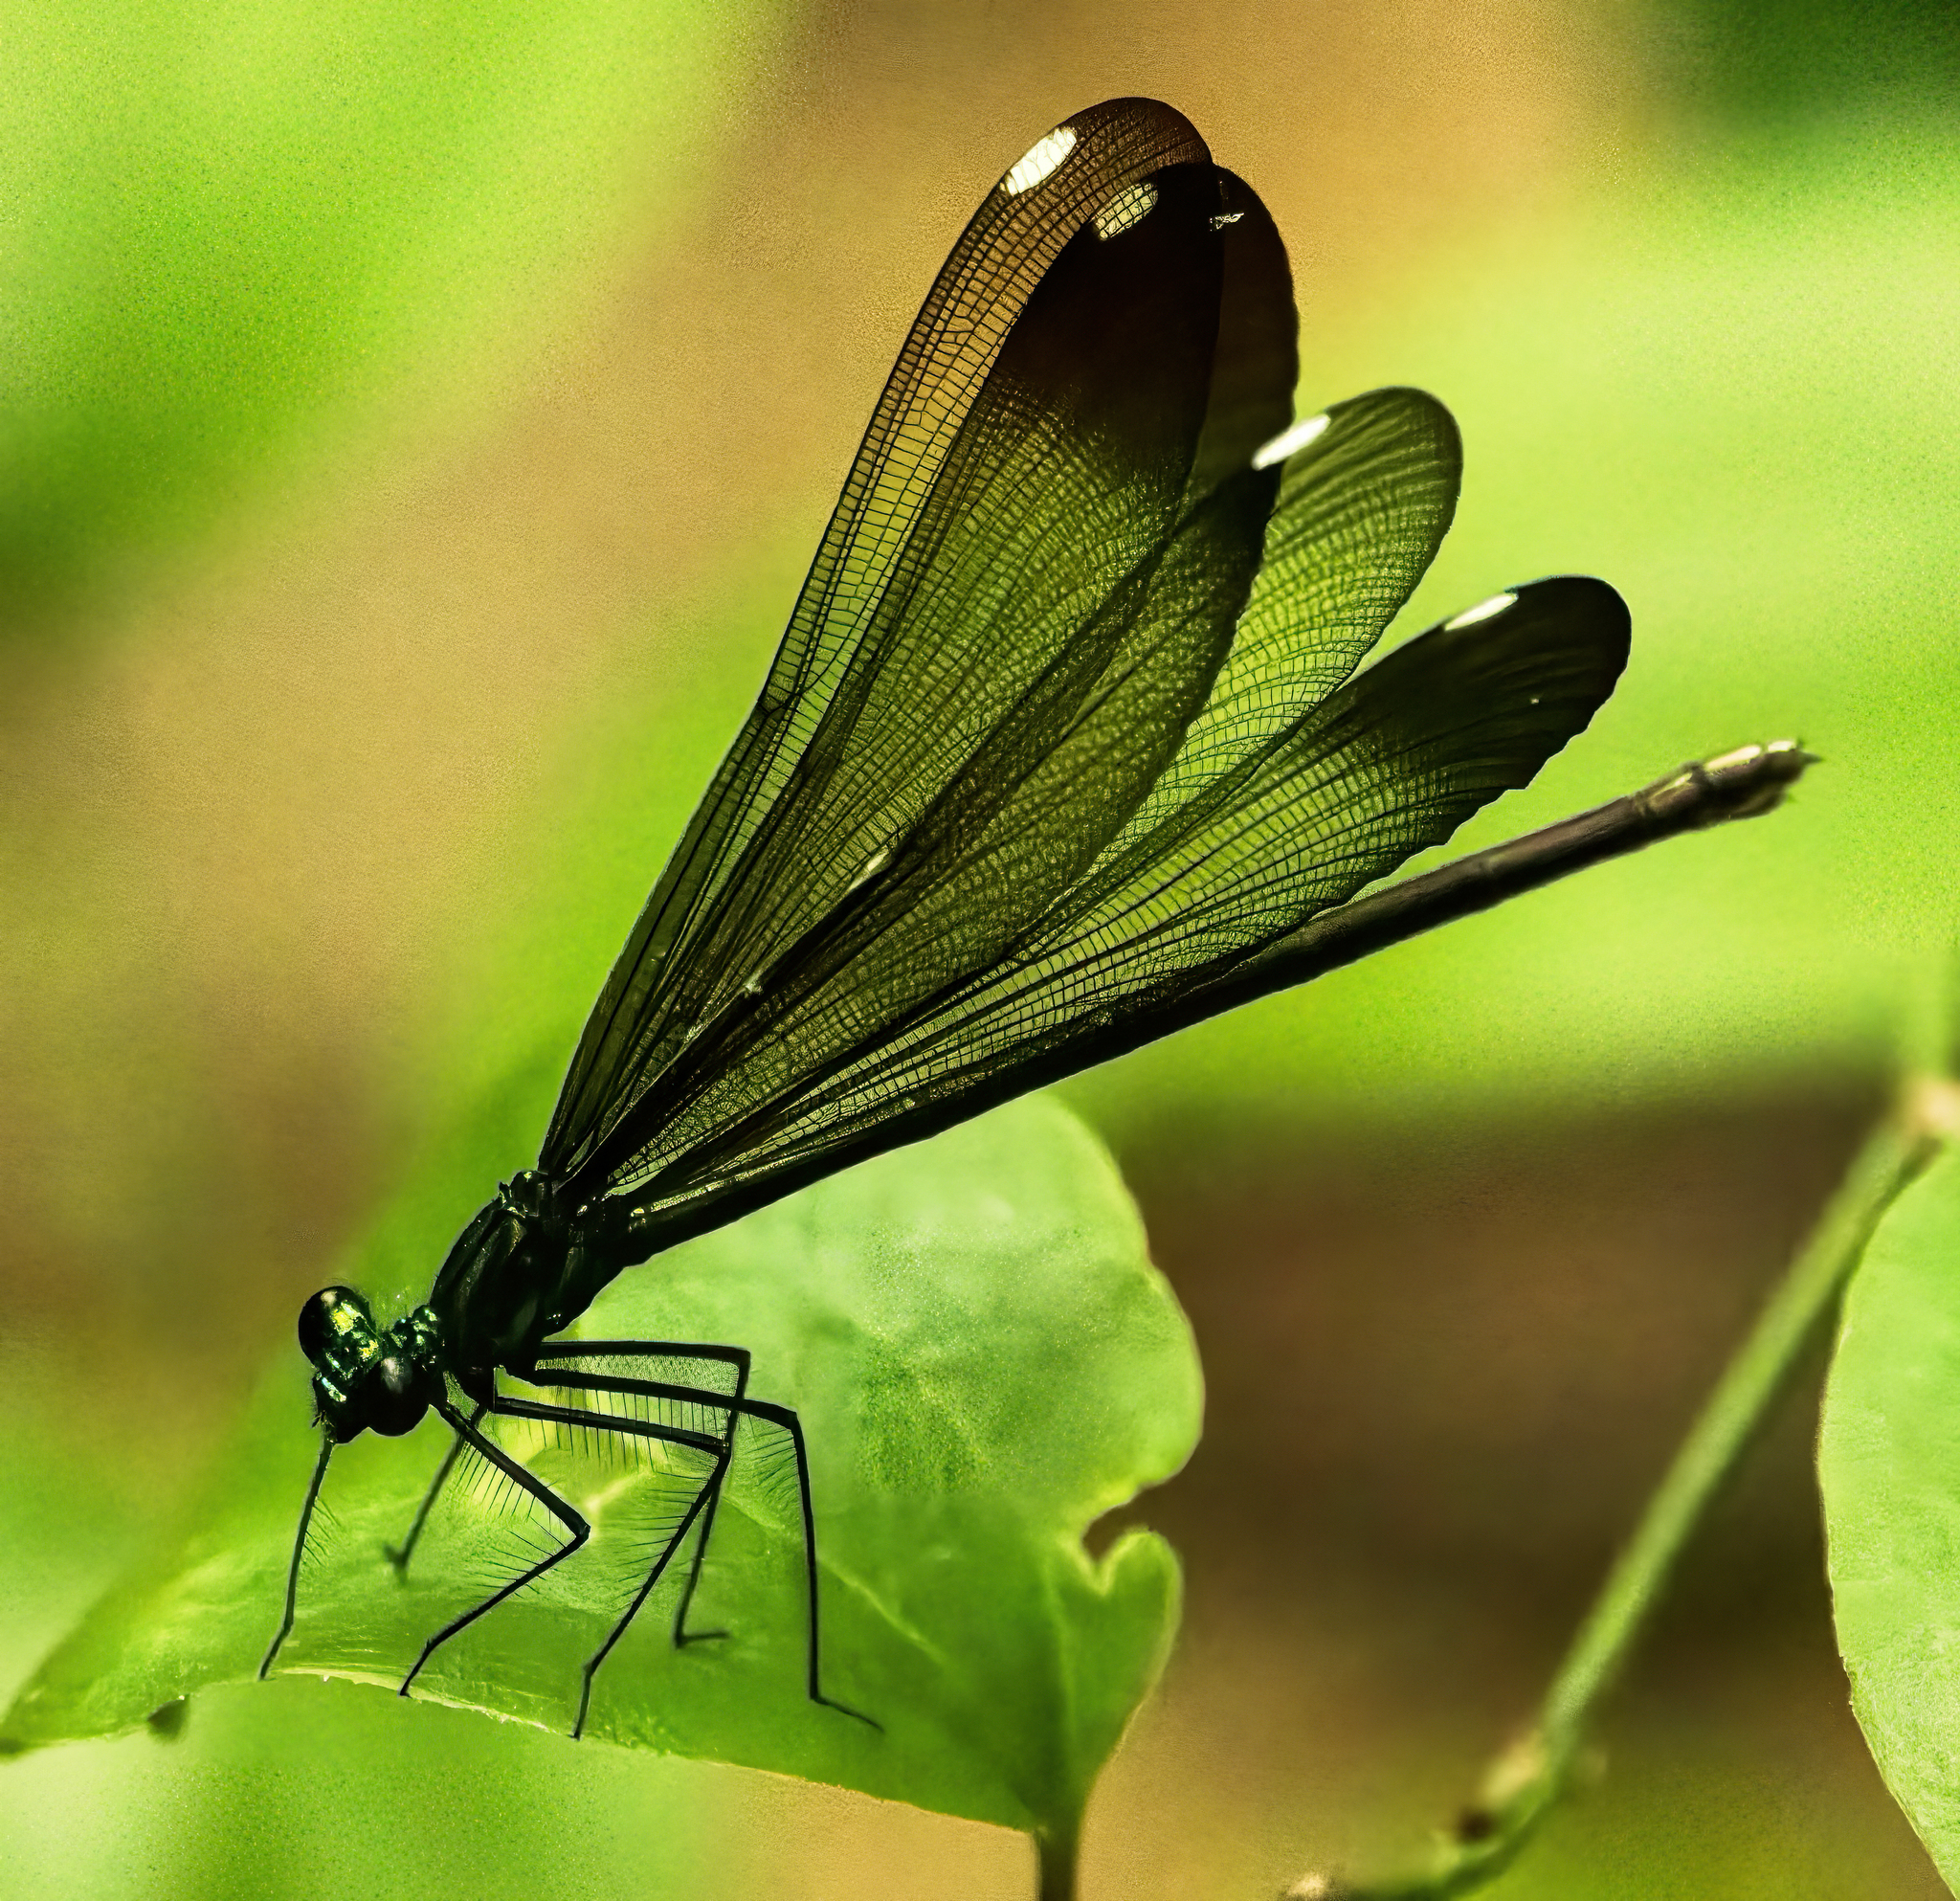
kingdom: Animalia
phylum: Arthropoda
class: Insecta
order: Odonata
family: Calopterygidae
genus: Calopteryx
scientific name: Calopteryx maculata
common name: Ebony jewelwing
